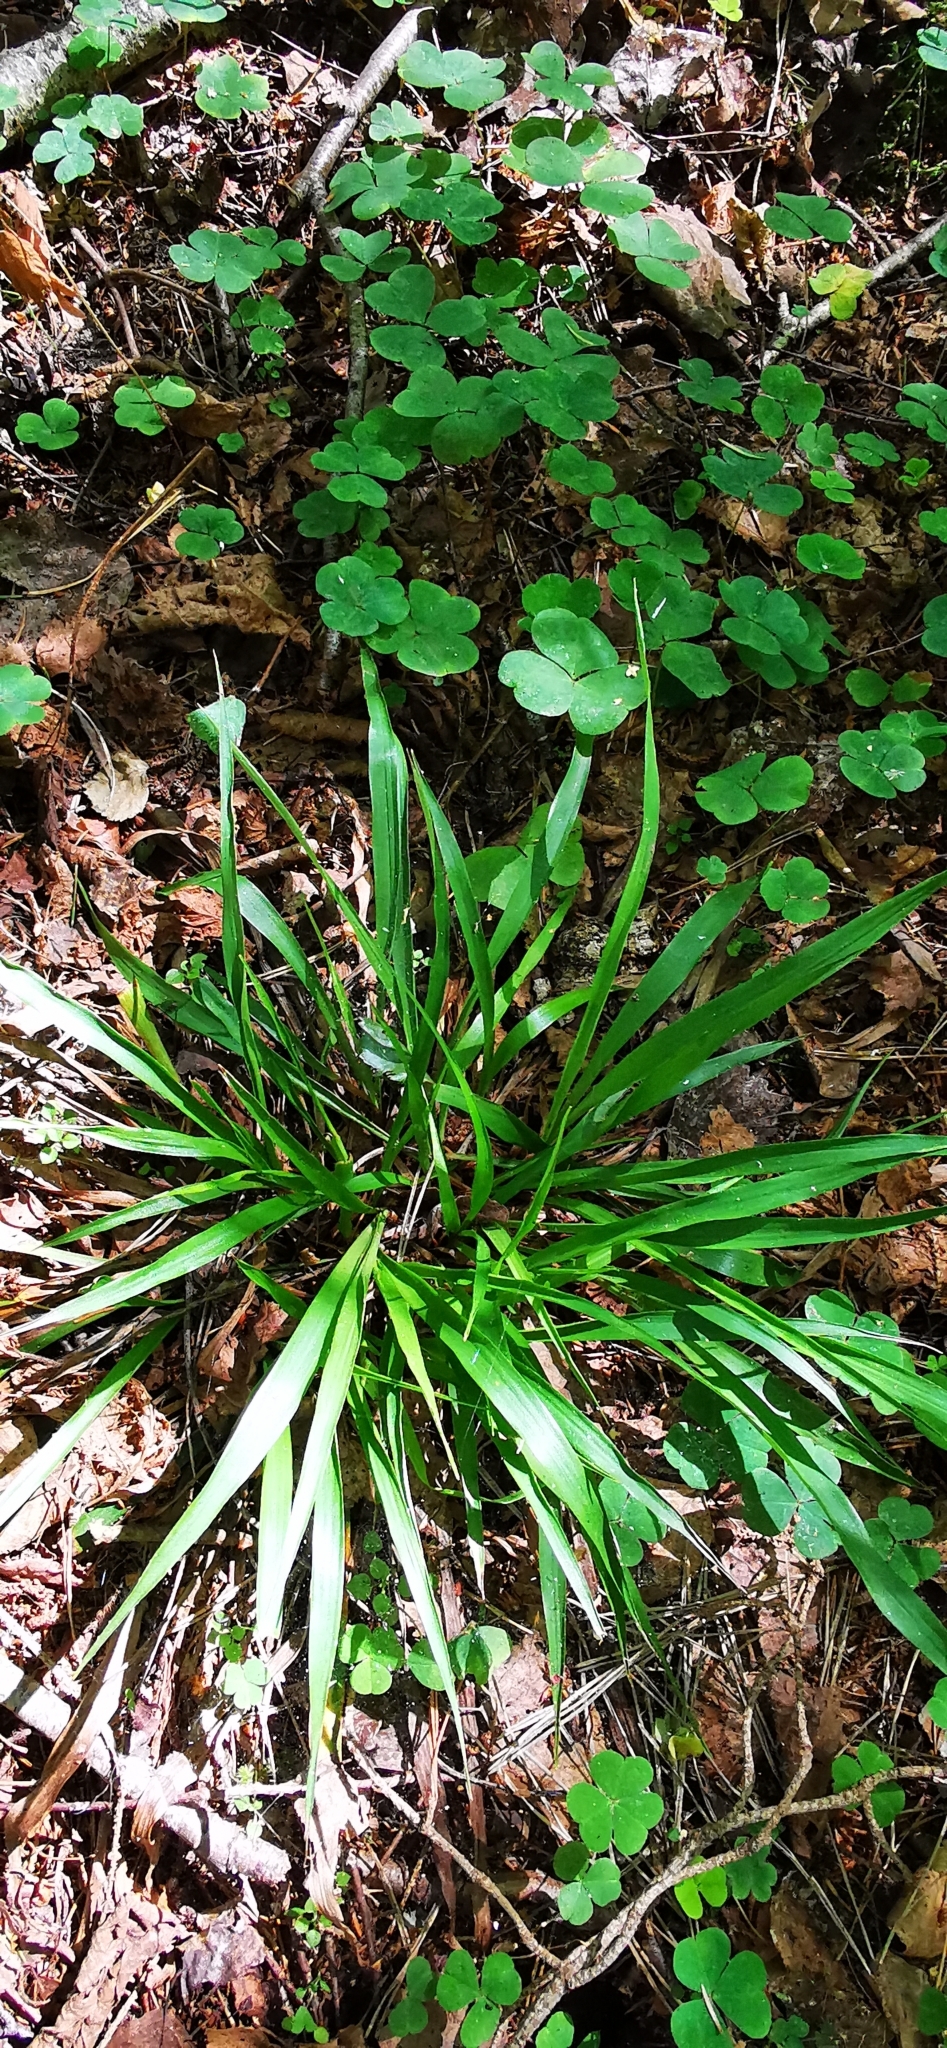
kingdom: Plantae
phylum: Tracheophyta
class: Liliopsida
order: Poales
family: Juncaceae
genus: Luzula
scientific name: Luzula pilosa
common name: Hairy wood-rush
